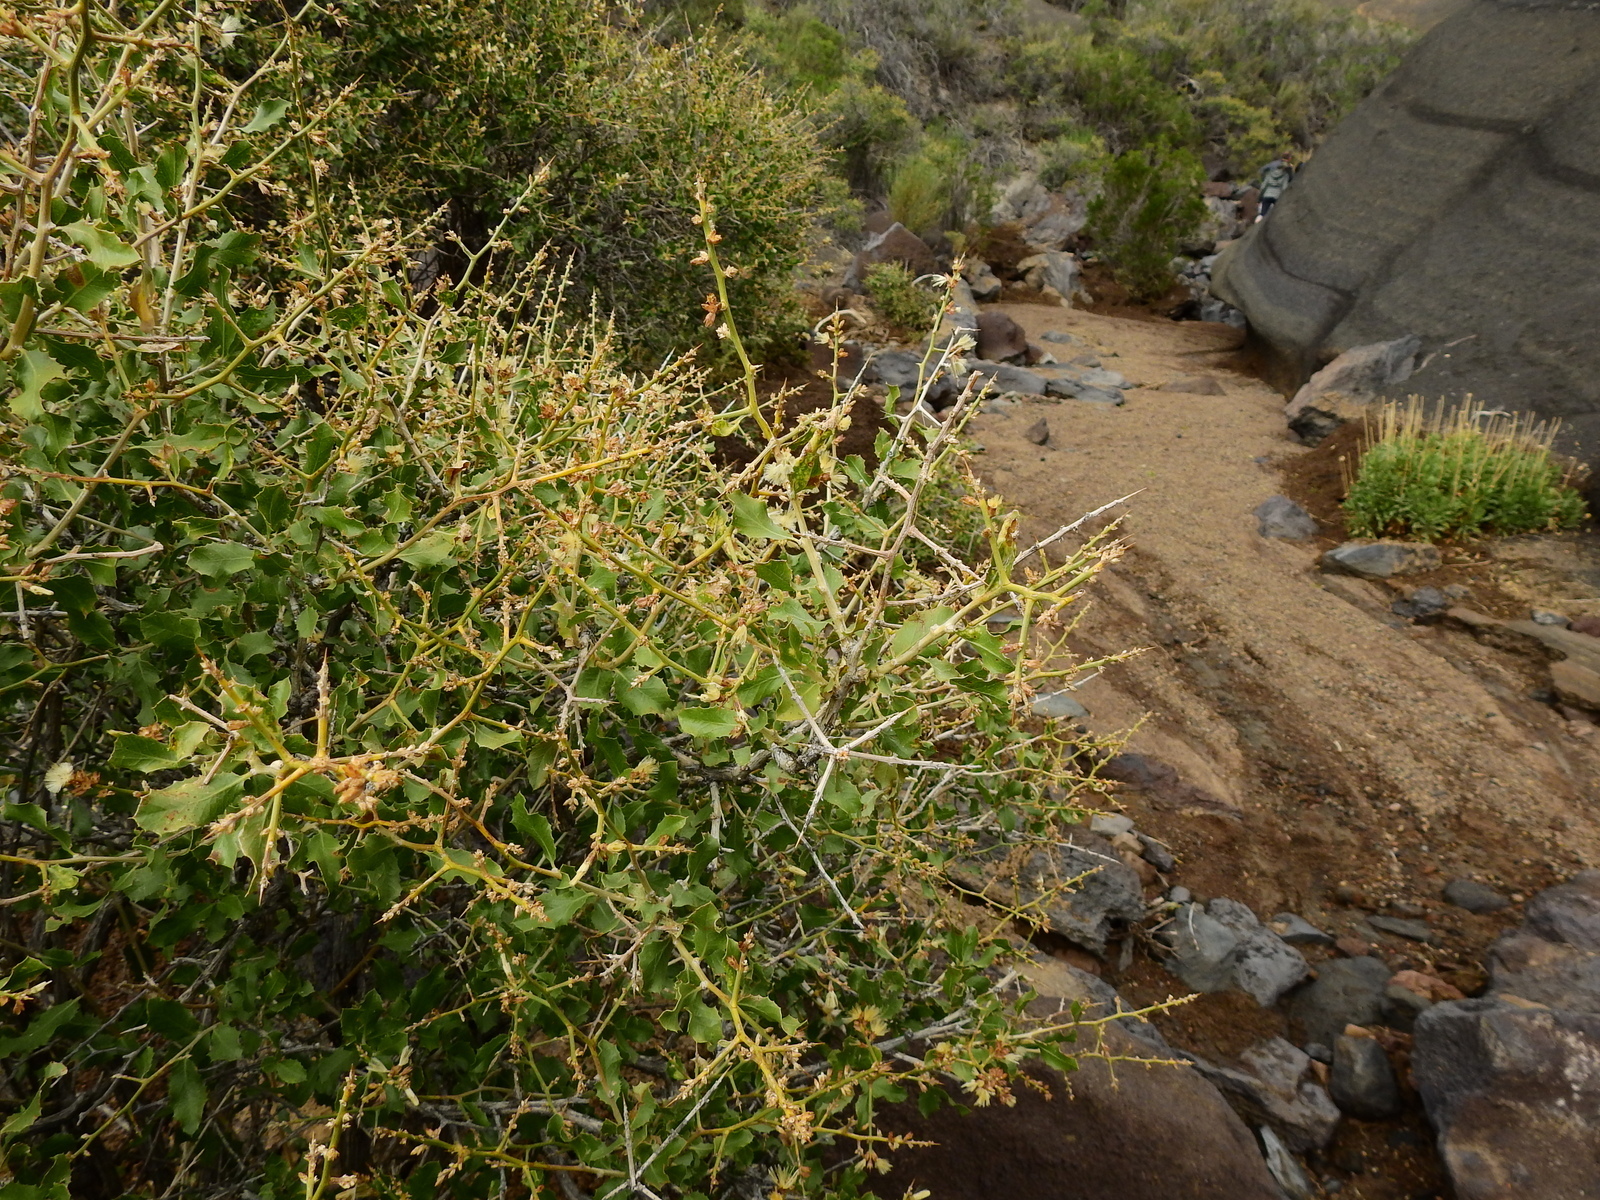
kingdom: Plantae
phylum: Tracheophyta
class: Magnoliopsida
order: Asterales
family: Asteraceae
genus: Proustia
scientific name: Proustia cuneifolia
